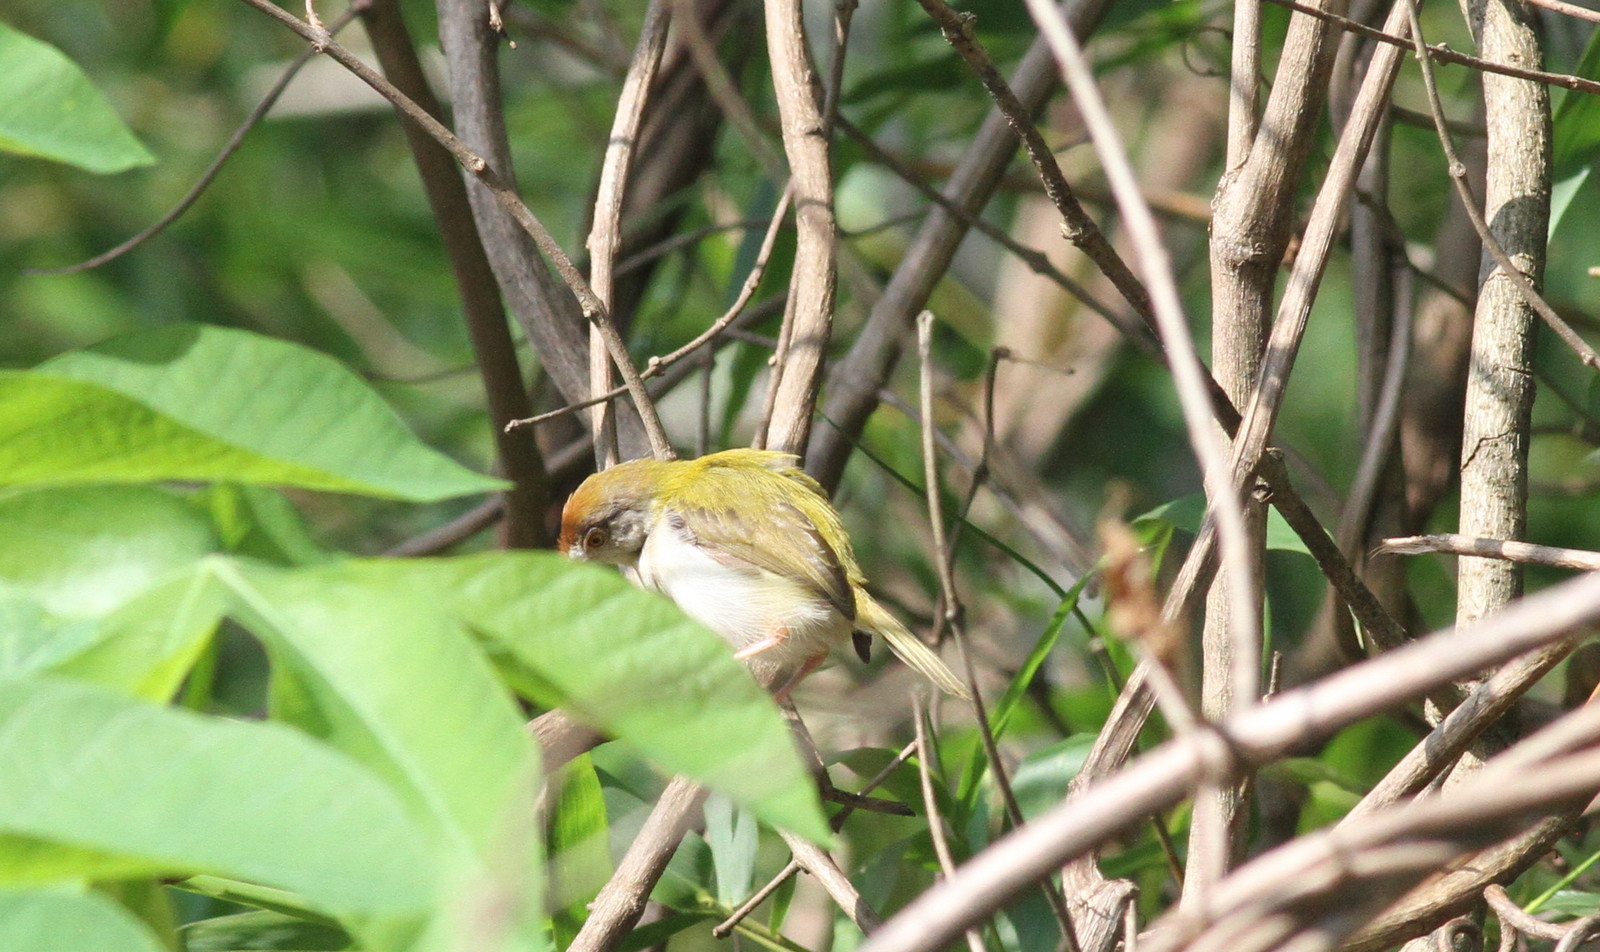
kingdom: Animalia
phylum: Chordata
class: Aves
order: Passeriformes
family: Cisticolidae
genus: Orthotomus
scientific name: Orthotomus sutorius
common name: Common tailorbird
